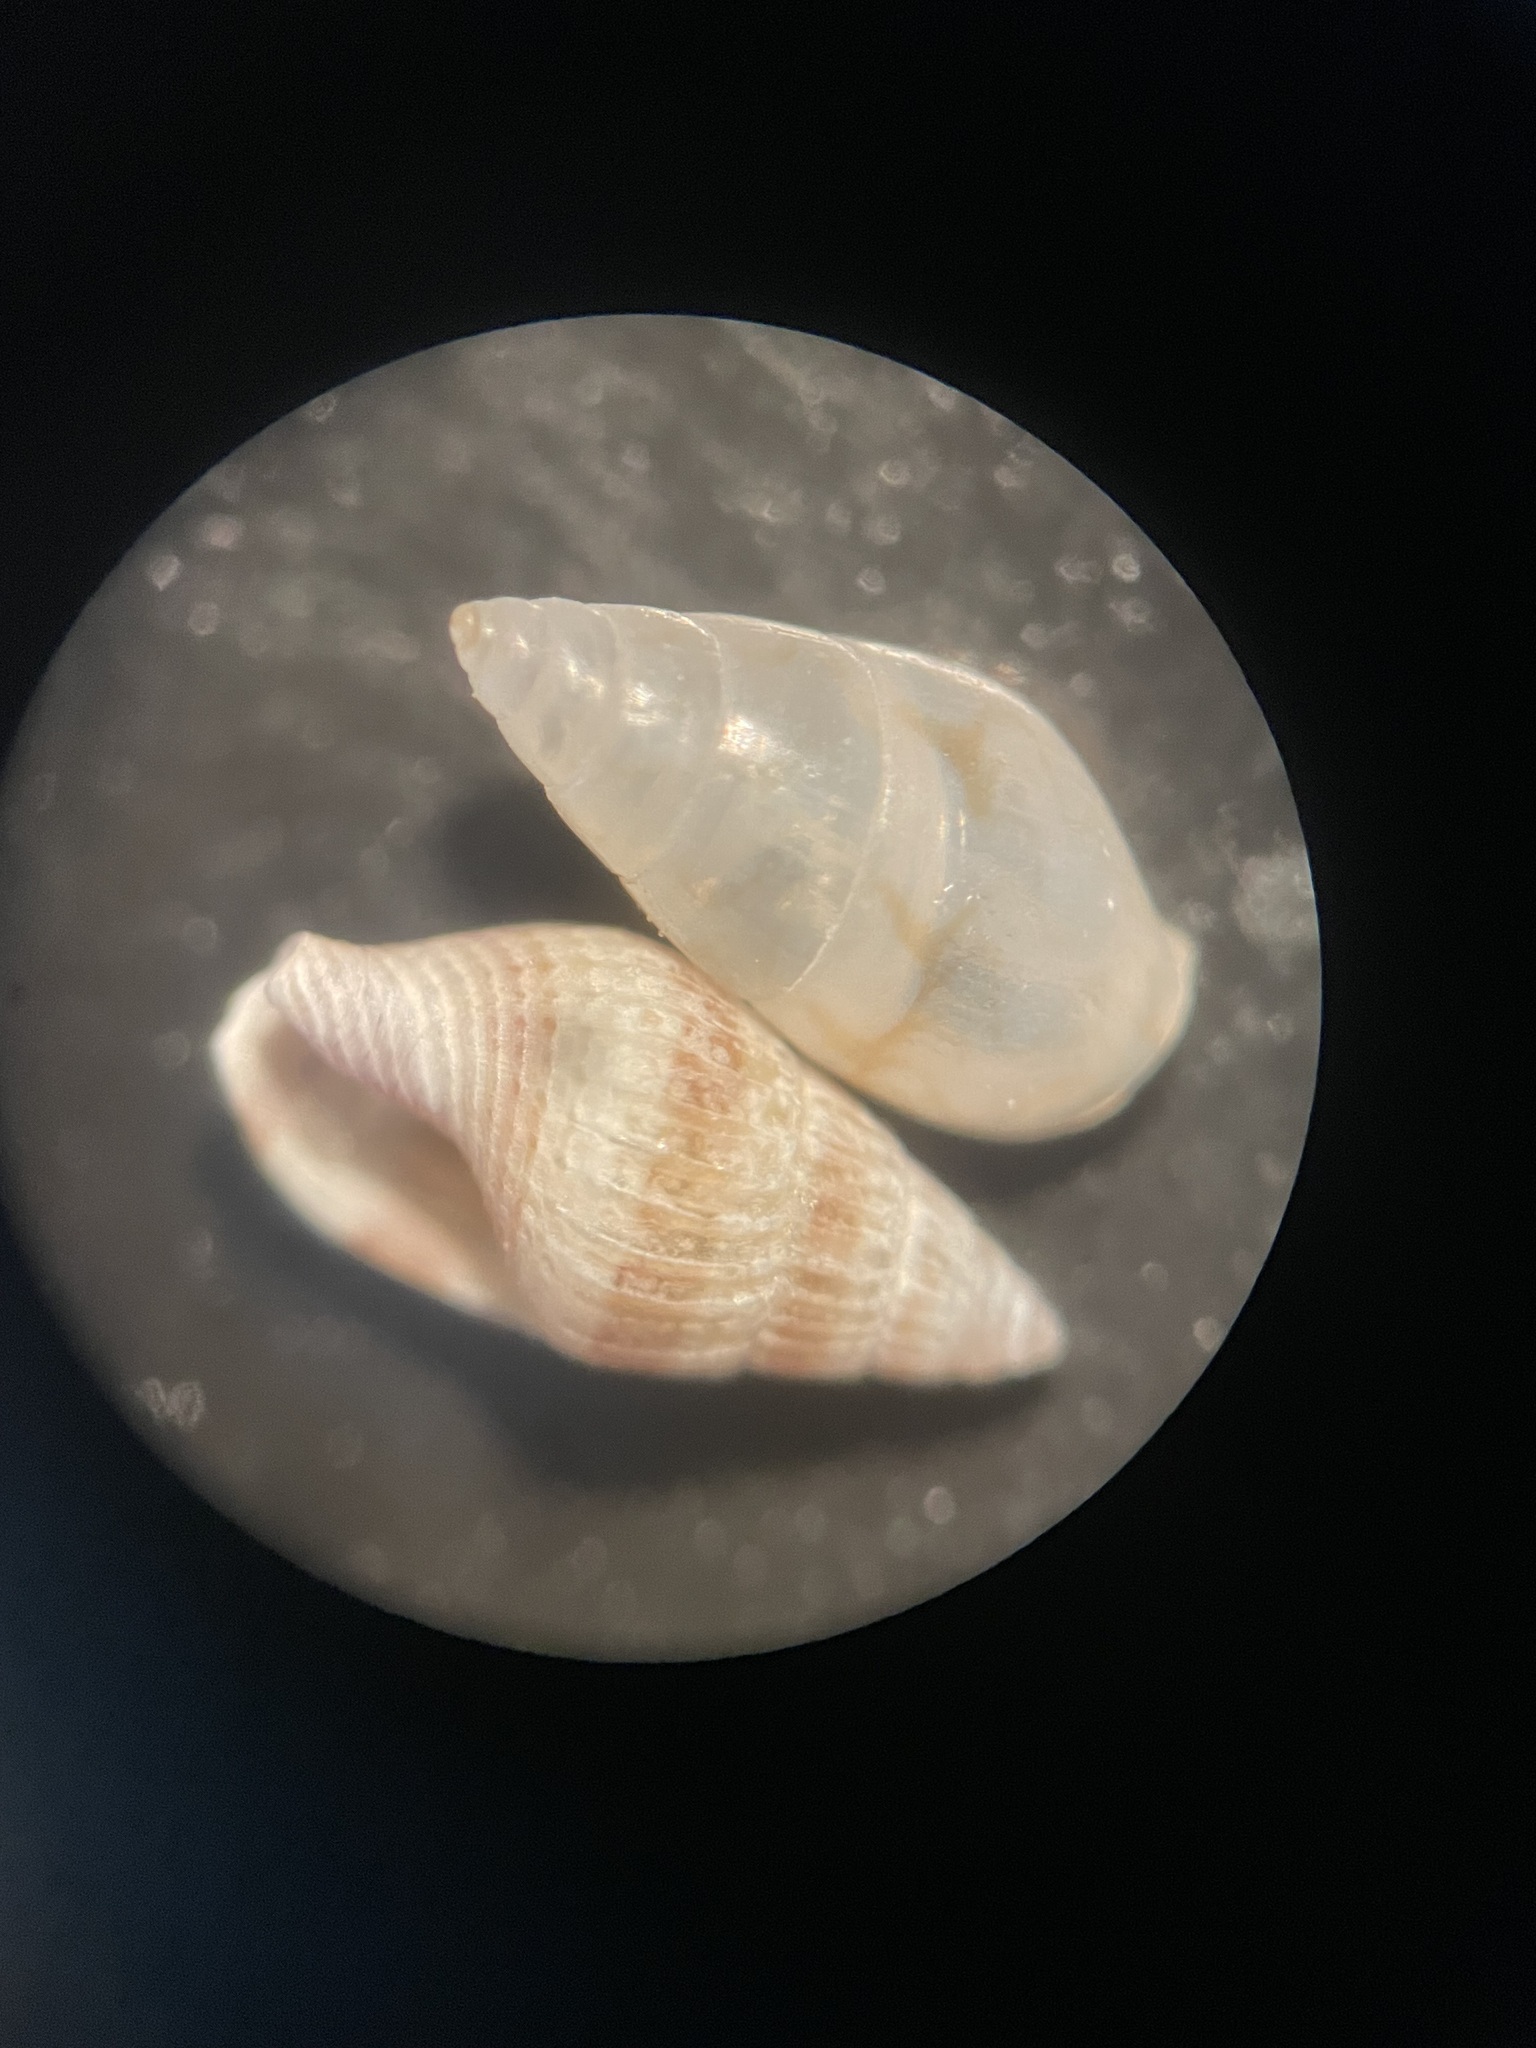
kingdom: Animalia
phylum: Mollusca
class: Gastropoda
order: Neogastropoda
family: Columbellidae
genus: Astyris
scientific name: Astyris lunata
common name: Lunar dovesnail
